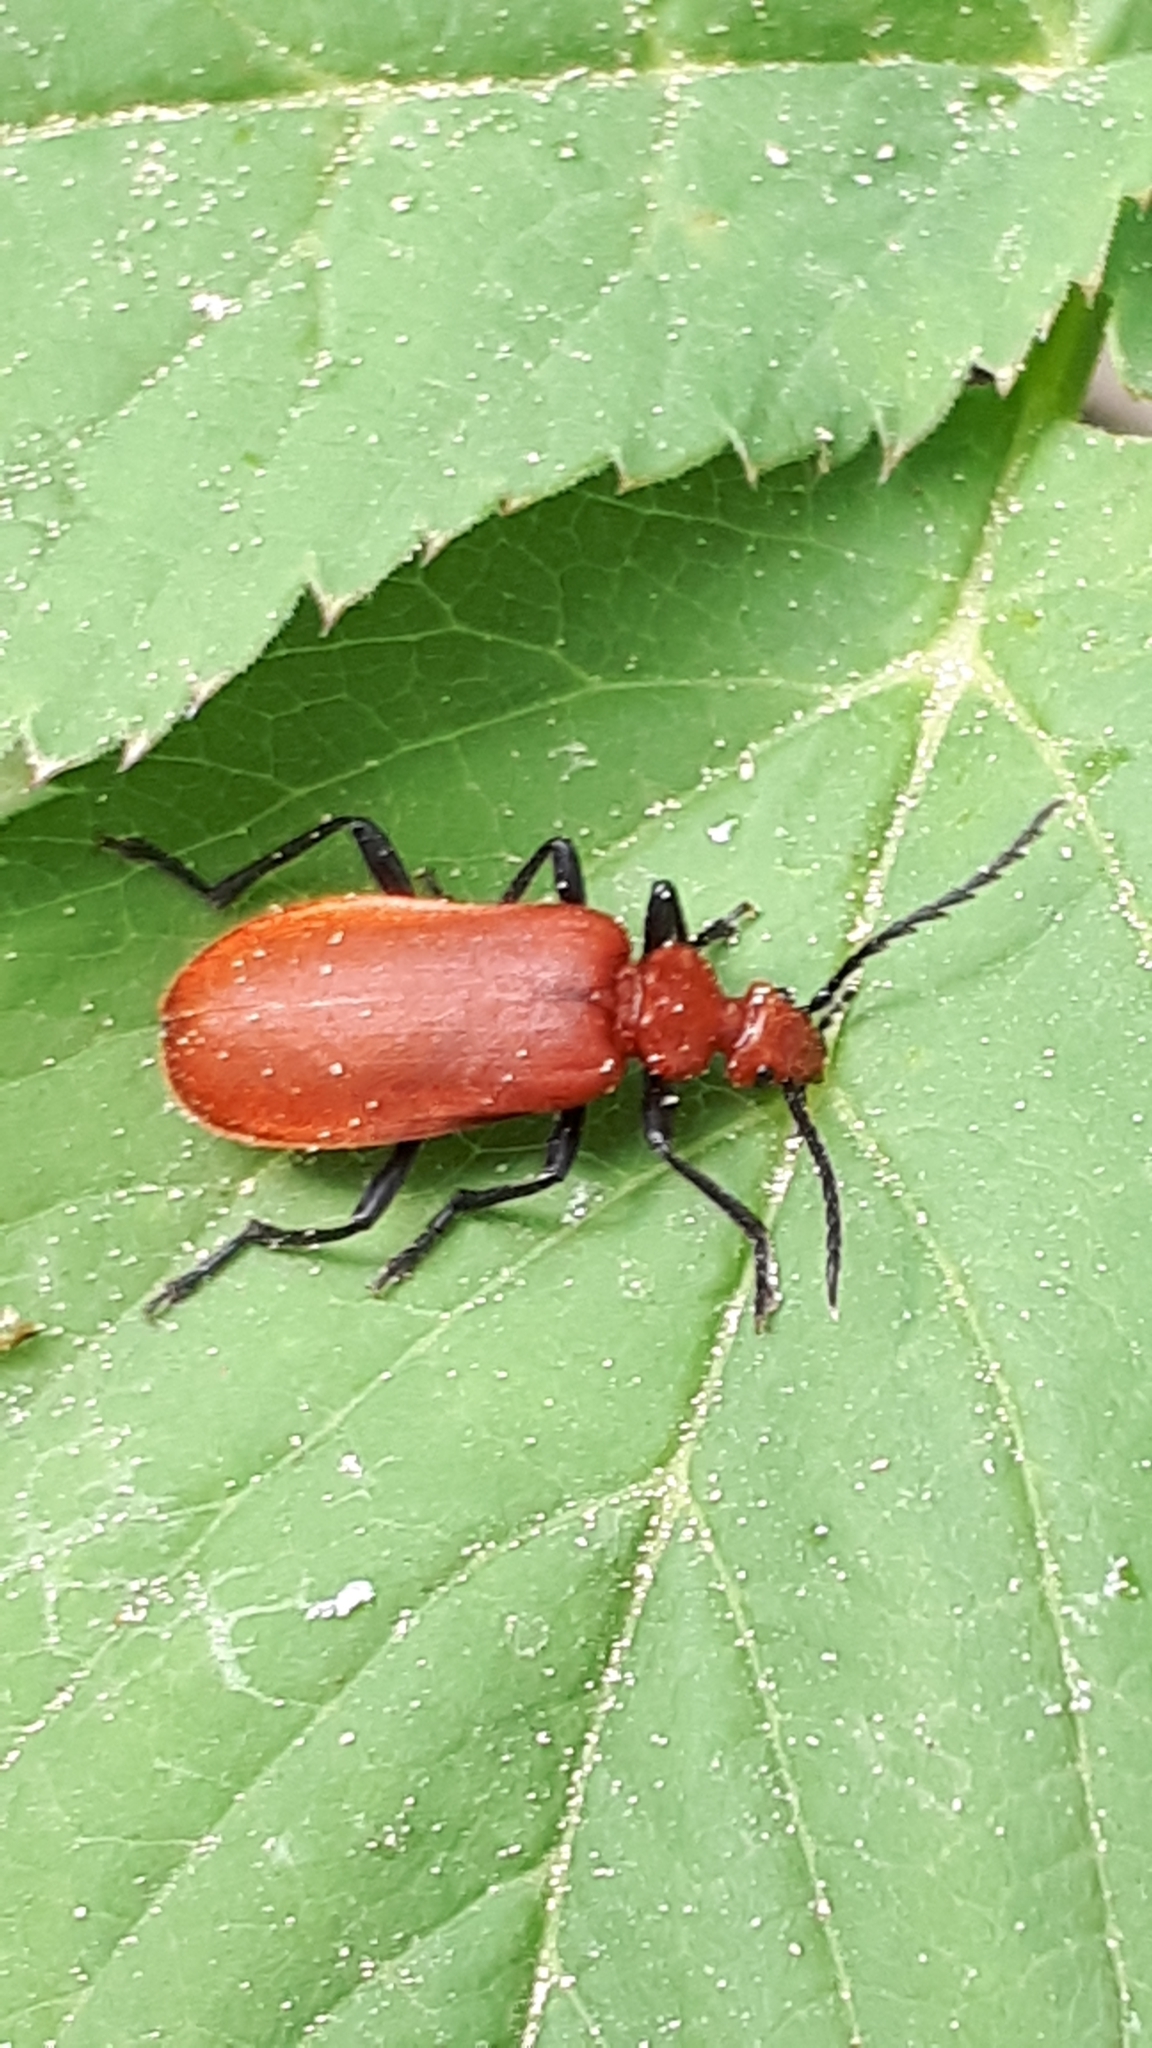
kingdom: Animalia
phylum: Arthropoda
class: Insecta
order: Coleoptera
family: Pyrochroidae
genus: Pyrochroa
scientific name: Pyrochroa serraticornis
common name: Red-headed cardinal beetle
